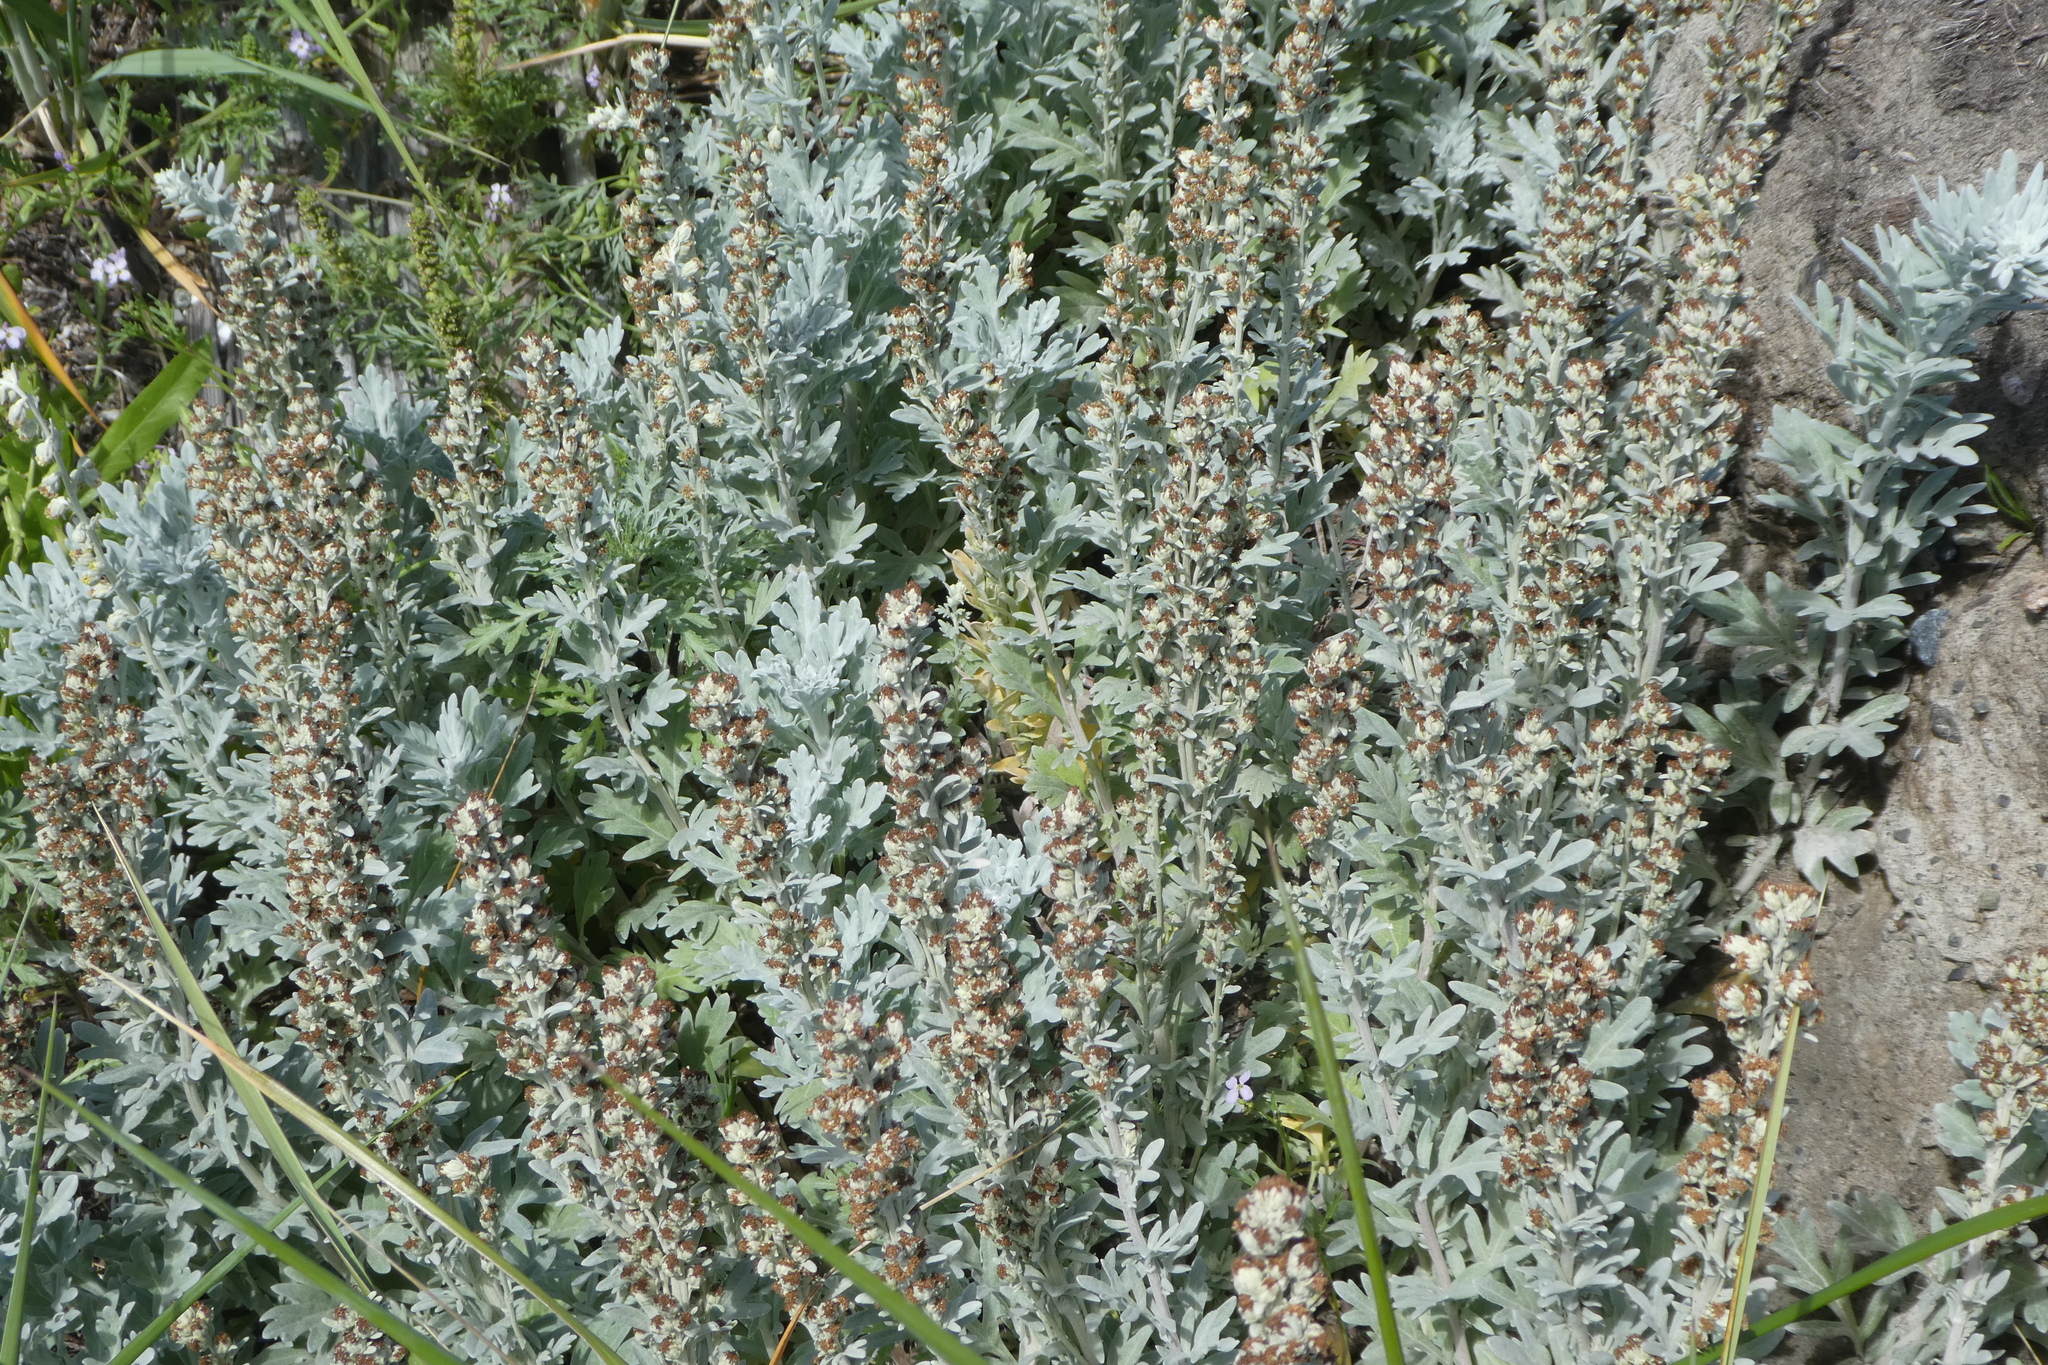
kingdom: Plantae
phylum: Tracheophyta
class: Magnoliopsida
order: Asterales
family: Asteraceae
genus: Artemisia
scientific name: Artemisia ludoviciana
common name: Western mugwort
